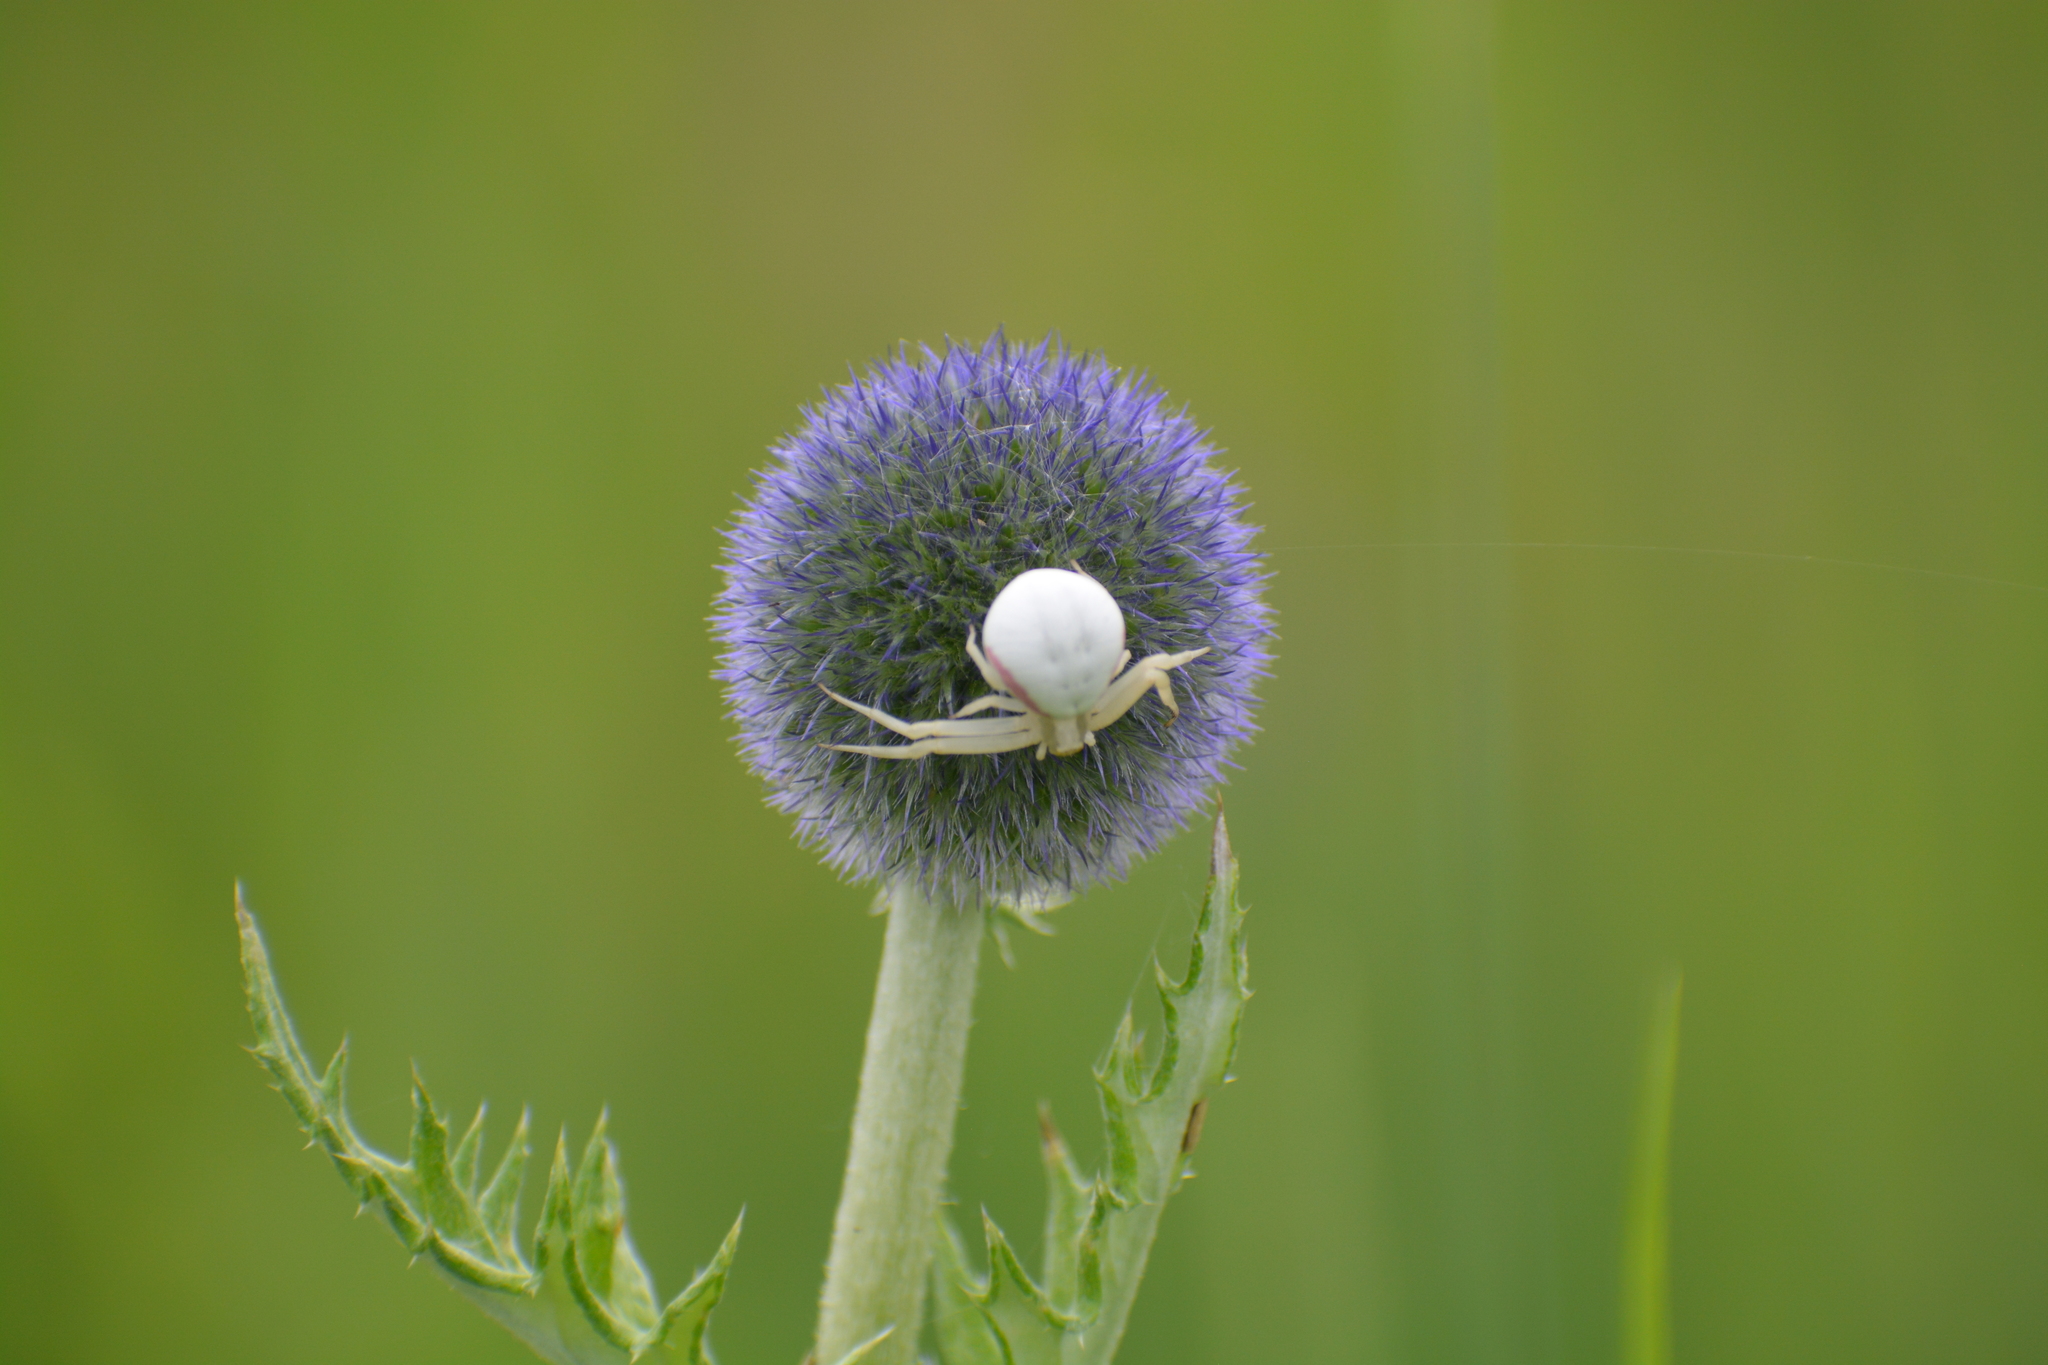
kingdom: Animalia
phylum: Arthropoda
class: Arachnida
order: Araneae
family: Thomisidae
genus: Misumena
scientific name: Misumena vatia
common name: Goldenrod crab spider
